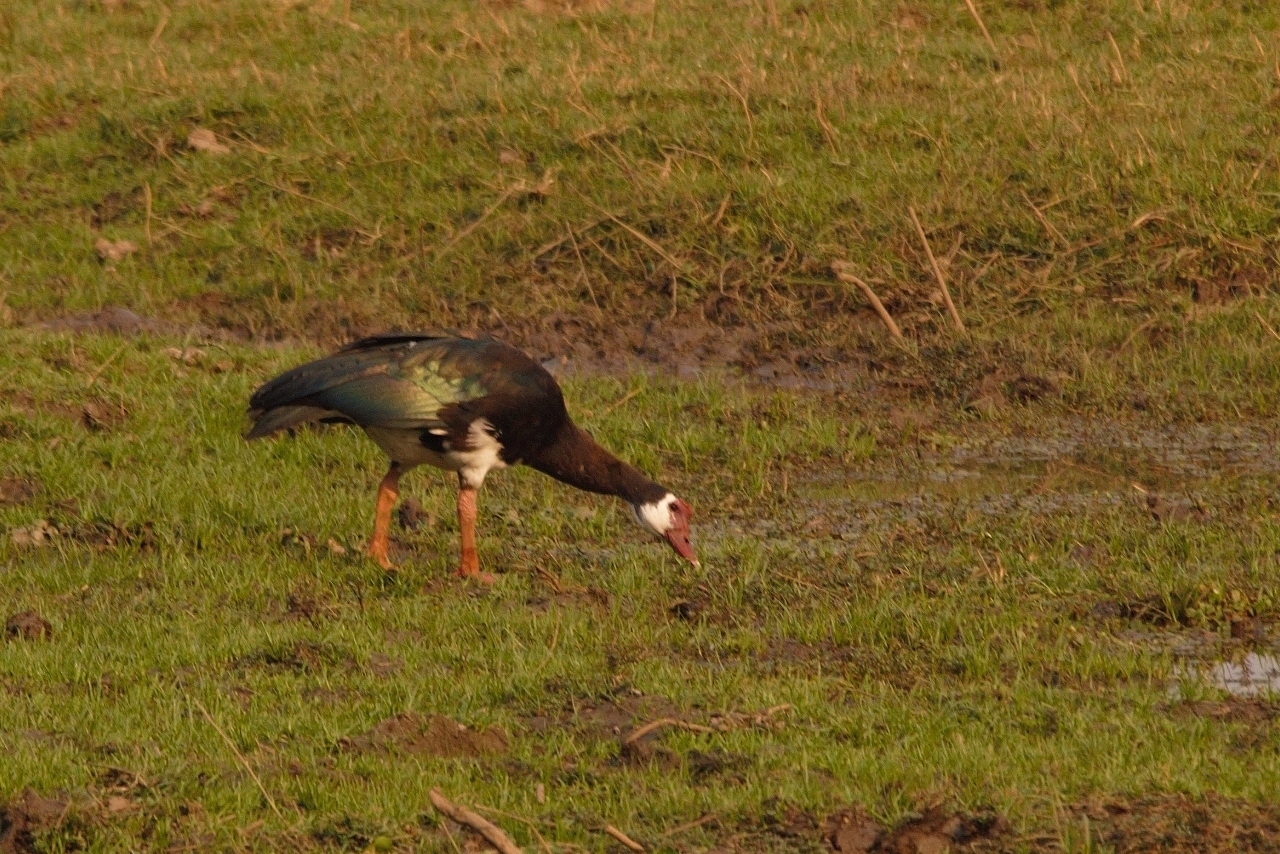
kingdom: Animalia
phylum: Chordata
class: Aves
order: Anseriformes
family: Anatidae
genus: Plectropterus
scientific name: Plectropterus gambensis
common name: Spur-winged goose
